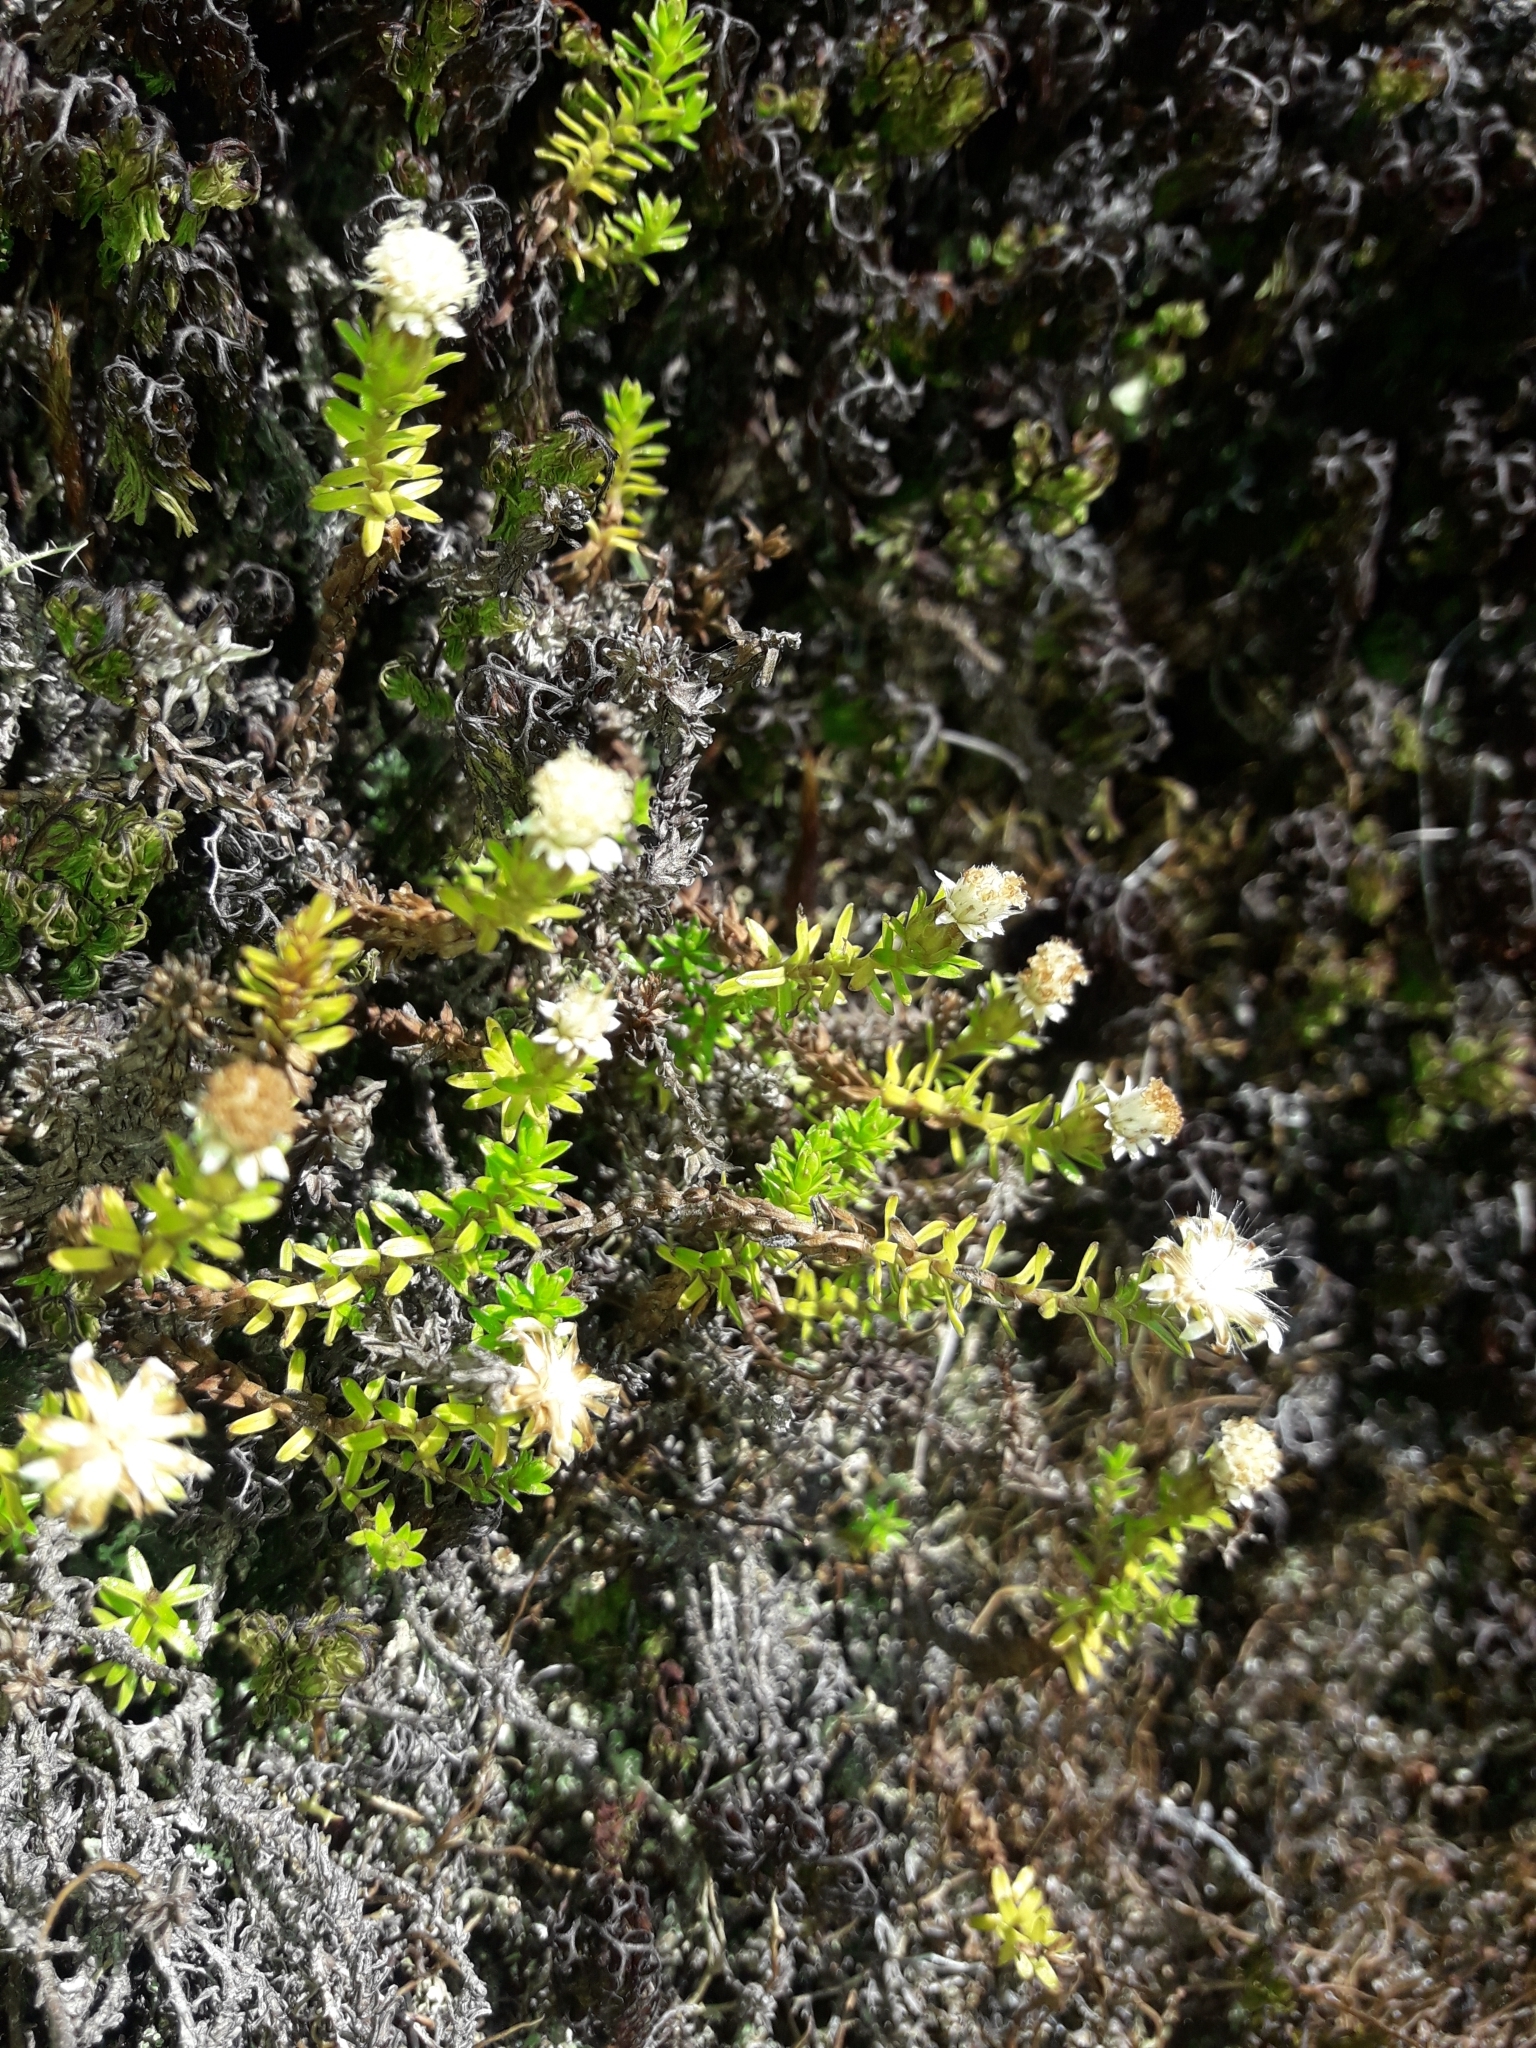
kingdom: Plantae
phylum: Tracheophyta
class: Magnoliopsida
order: Asterales
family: Asteraceae
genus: Raoulia
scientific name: Raoulia glabra
